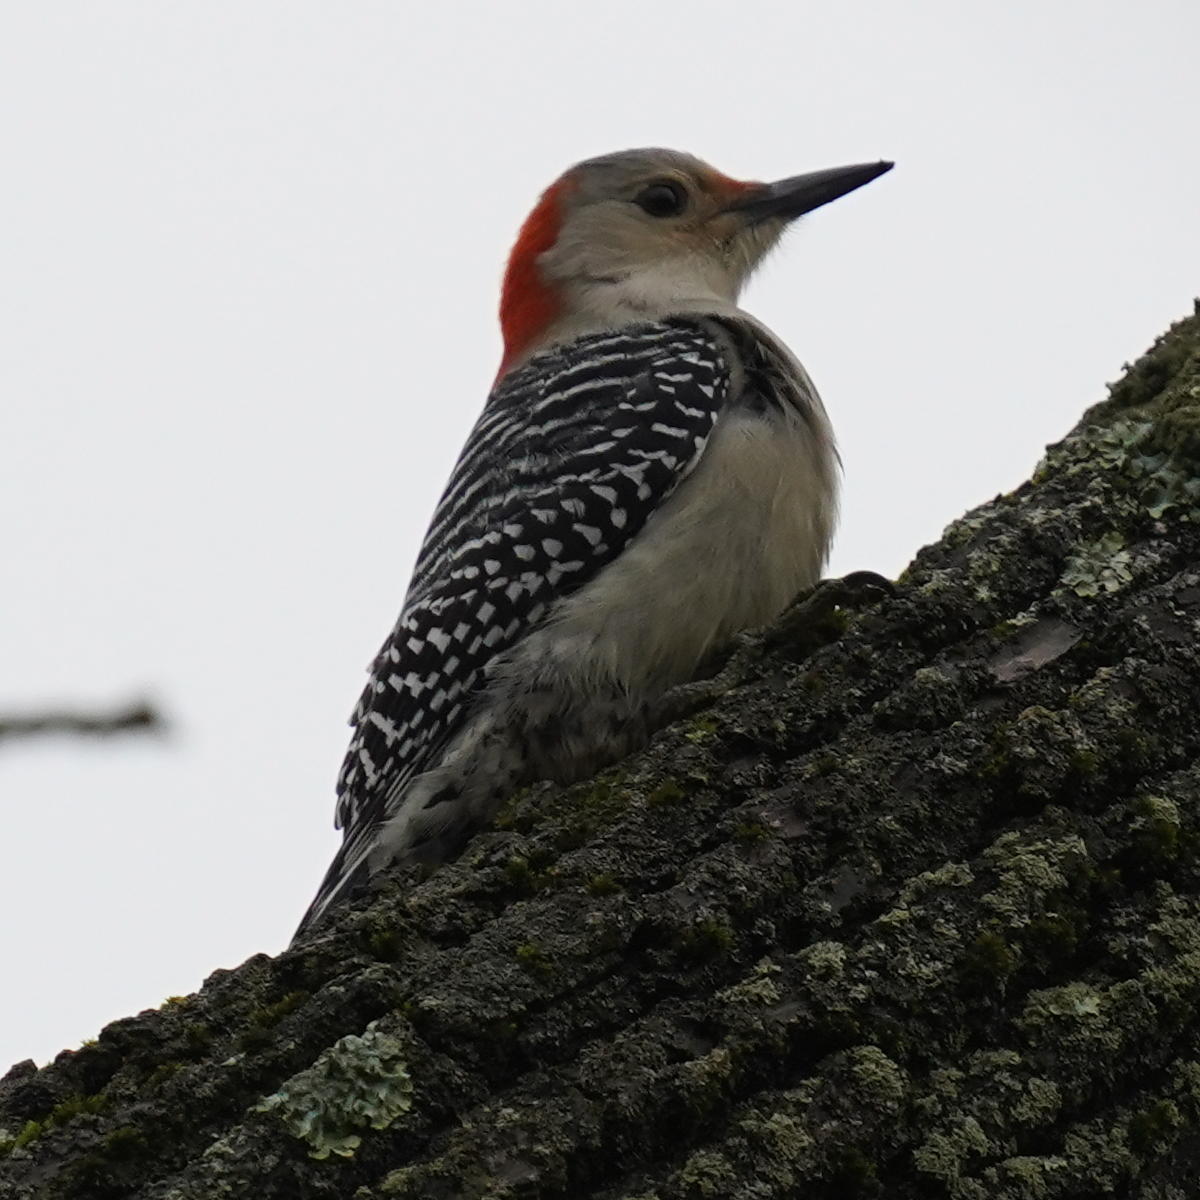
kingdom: Animalia
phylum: Chordata
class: Aves
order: Piciformes
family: Picidae
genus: Melanerpes
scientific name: Melanerpes carolinus
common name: Red-bellied woodpecker
